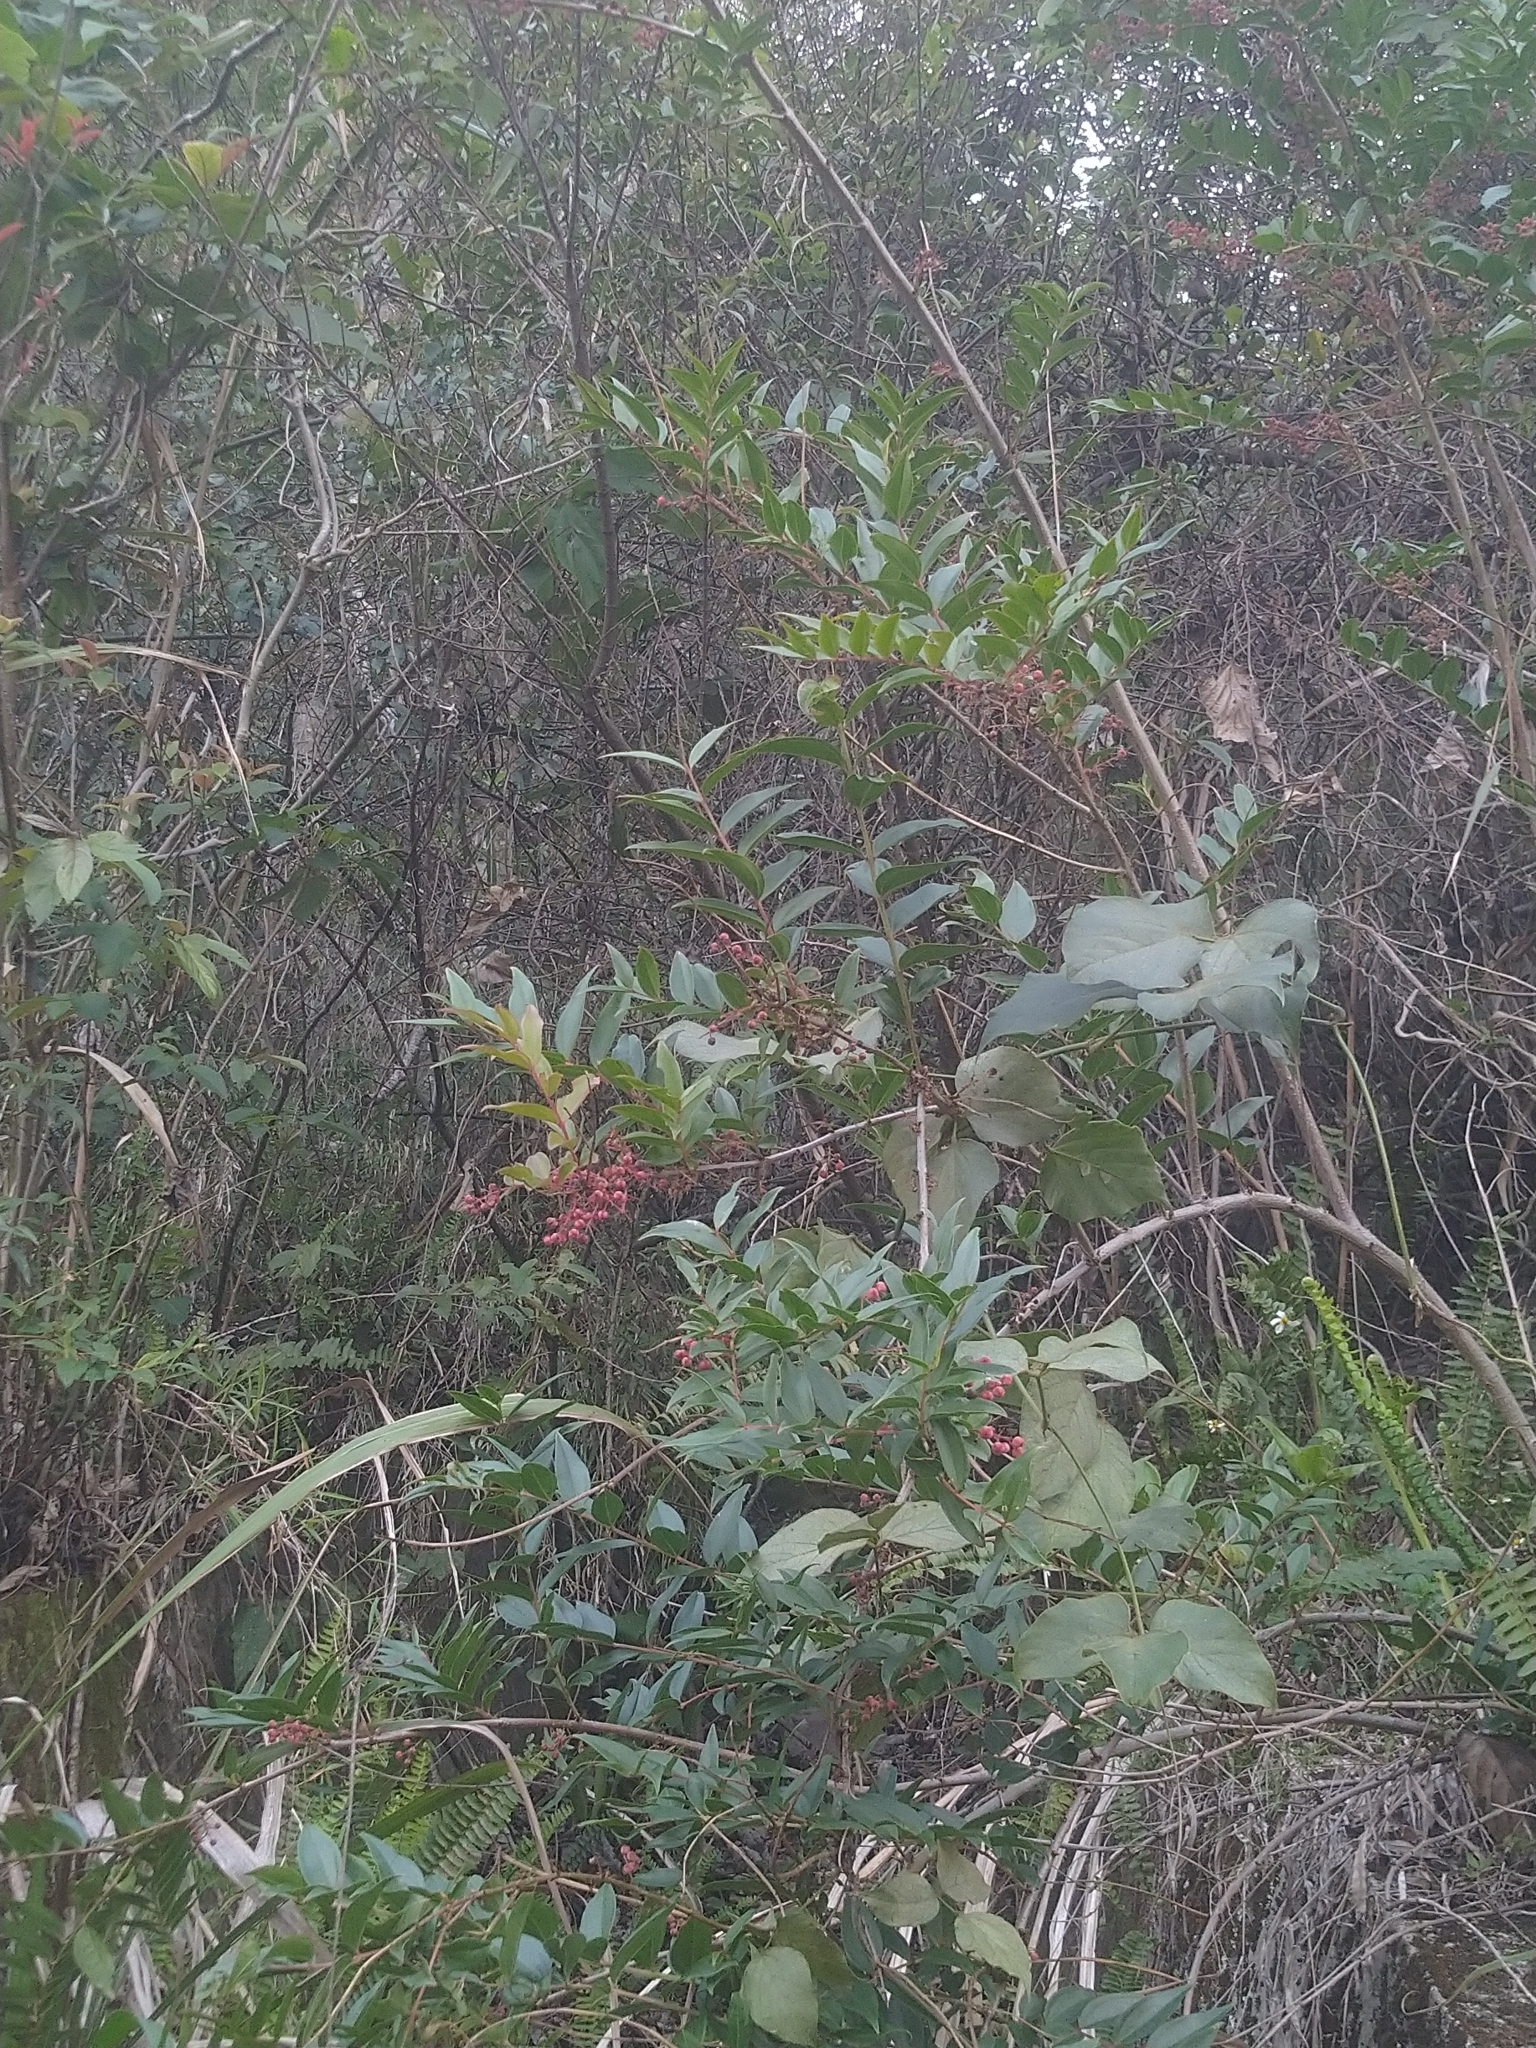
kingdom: Plantae
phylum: Tracheophyta
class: Magnoliopsida
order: Cucurbitales
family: Coriariaceae
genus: Coriaria
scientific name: Coriaria japonica
